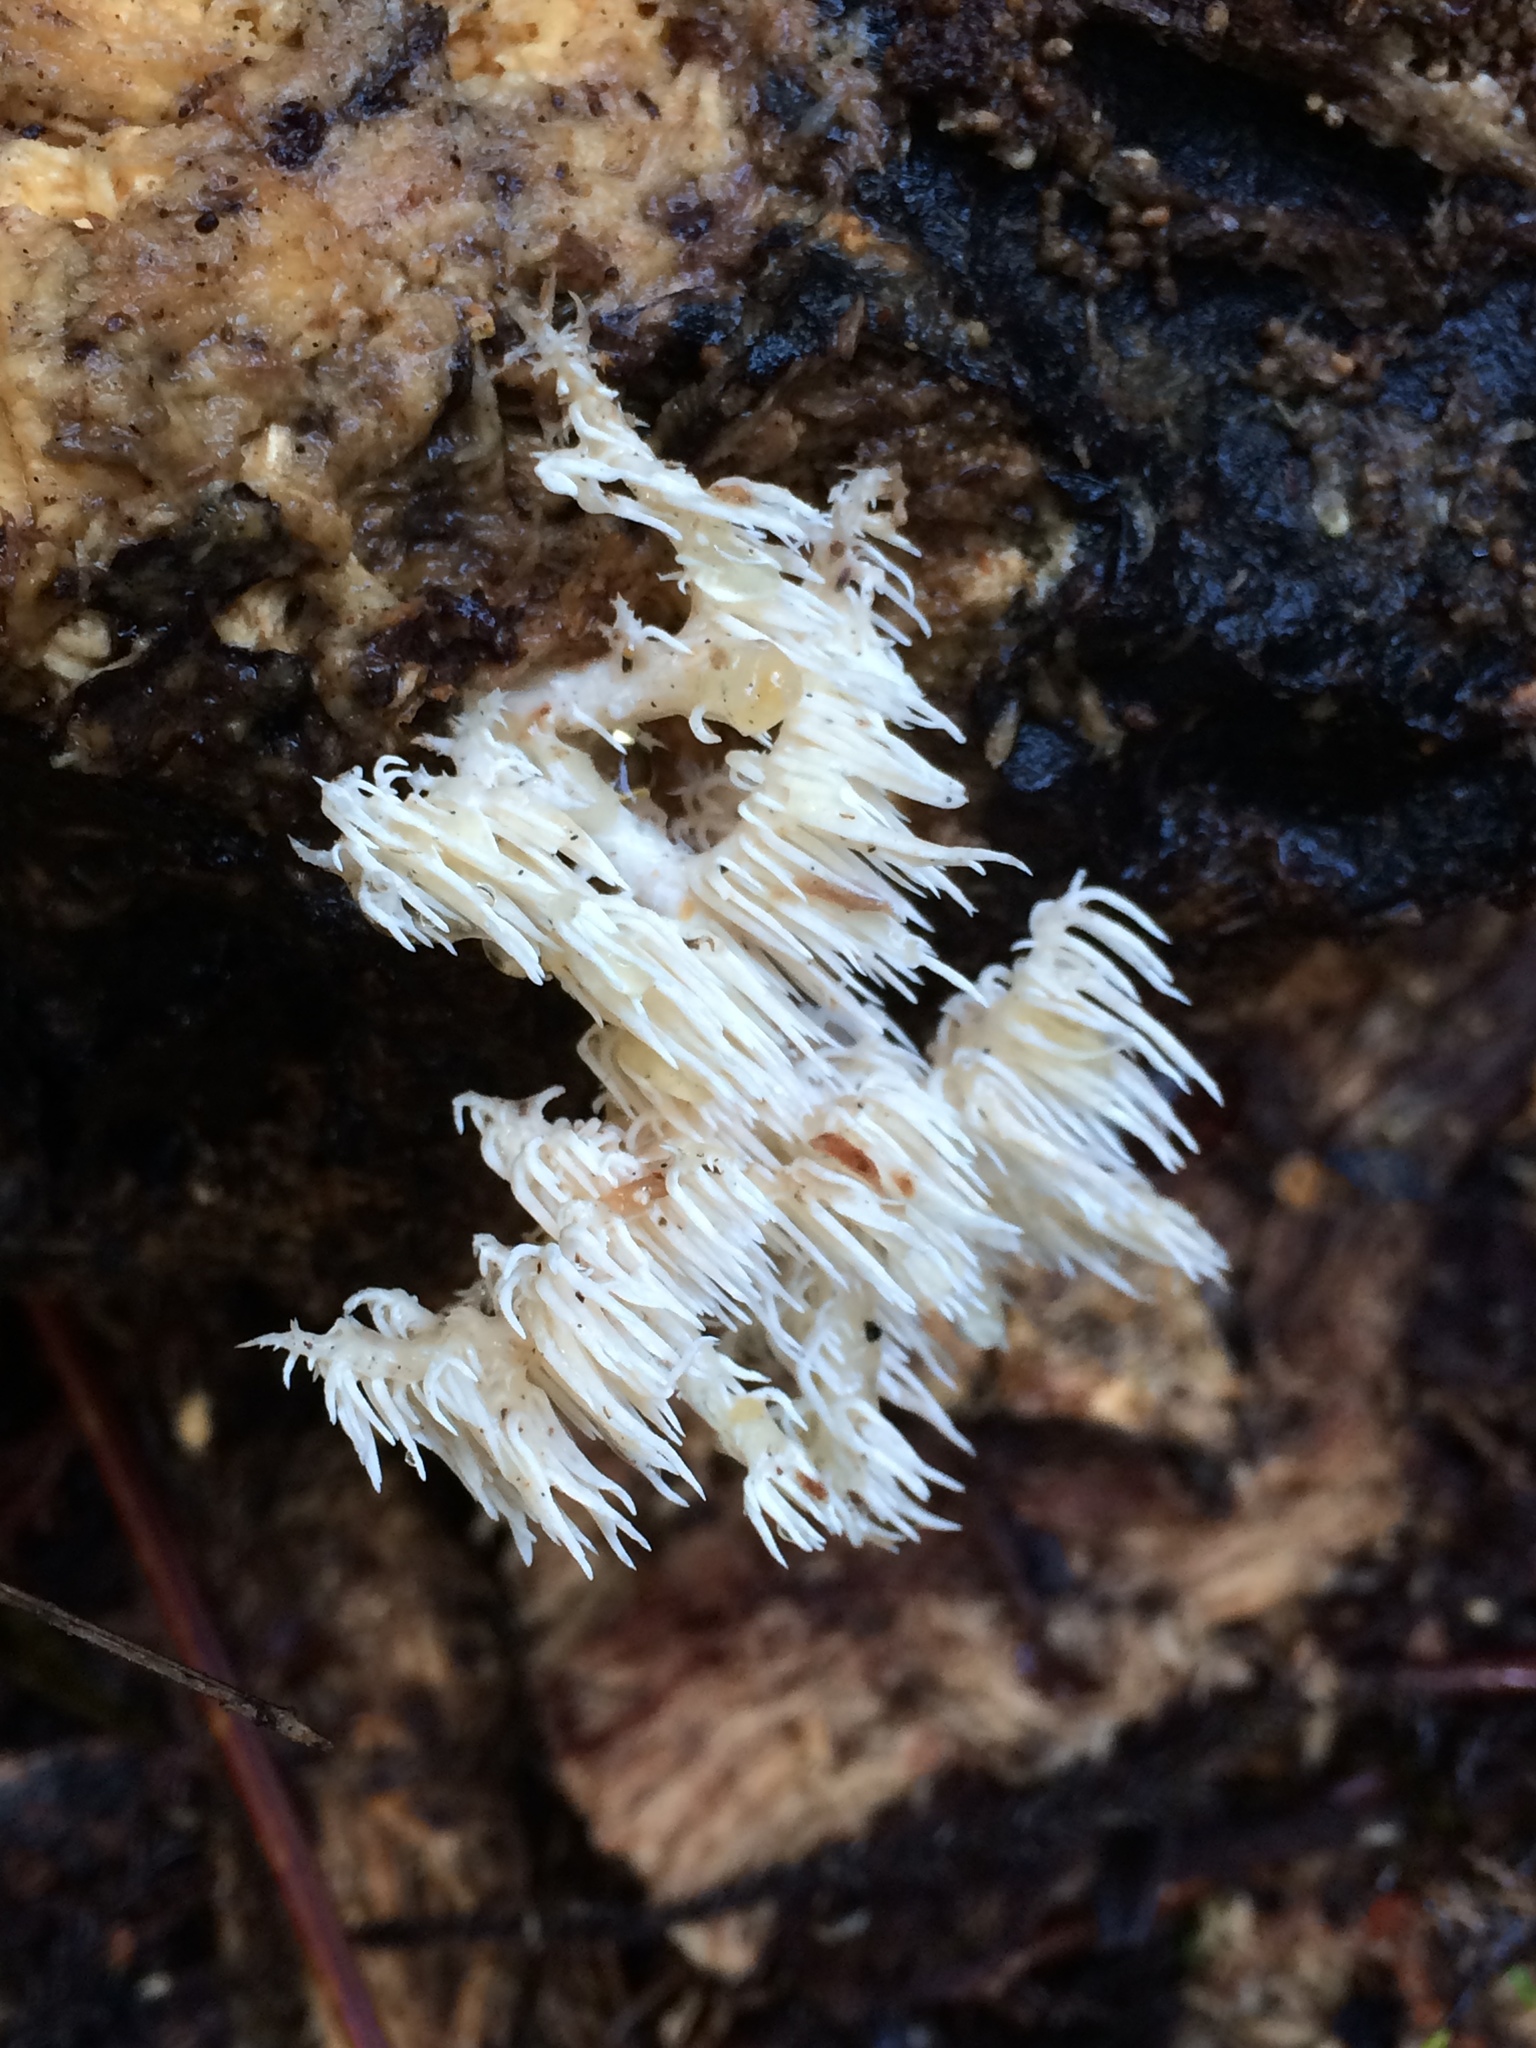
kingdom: Fungi
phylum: Basidiomycota
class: Agaricomycetes
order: Russulales
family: Hericiaceae
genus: Hericium
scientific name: Hericium novae-zealandiae
